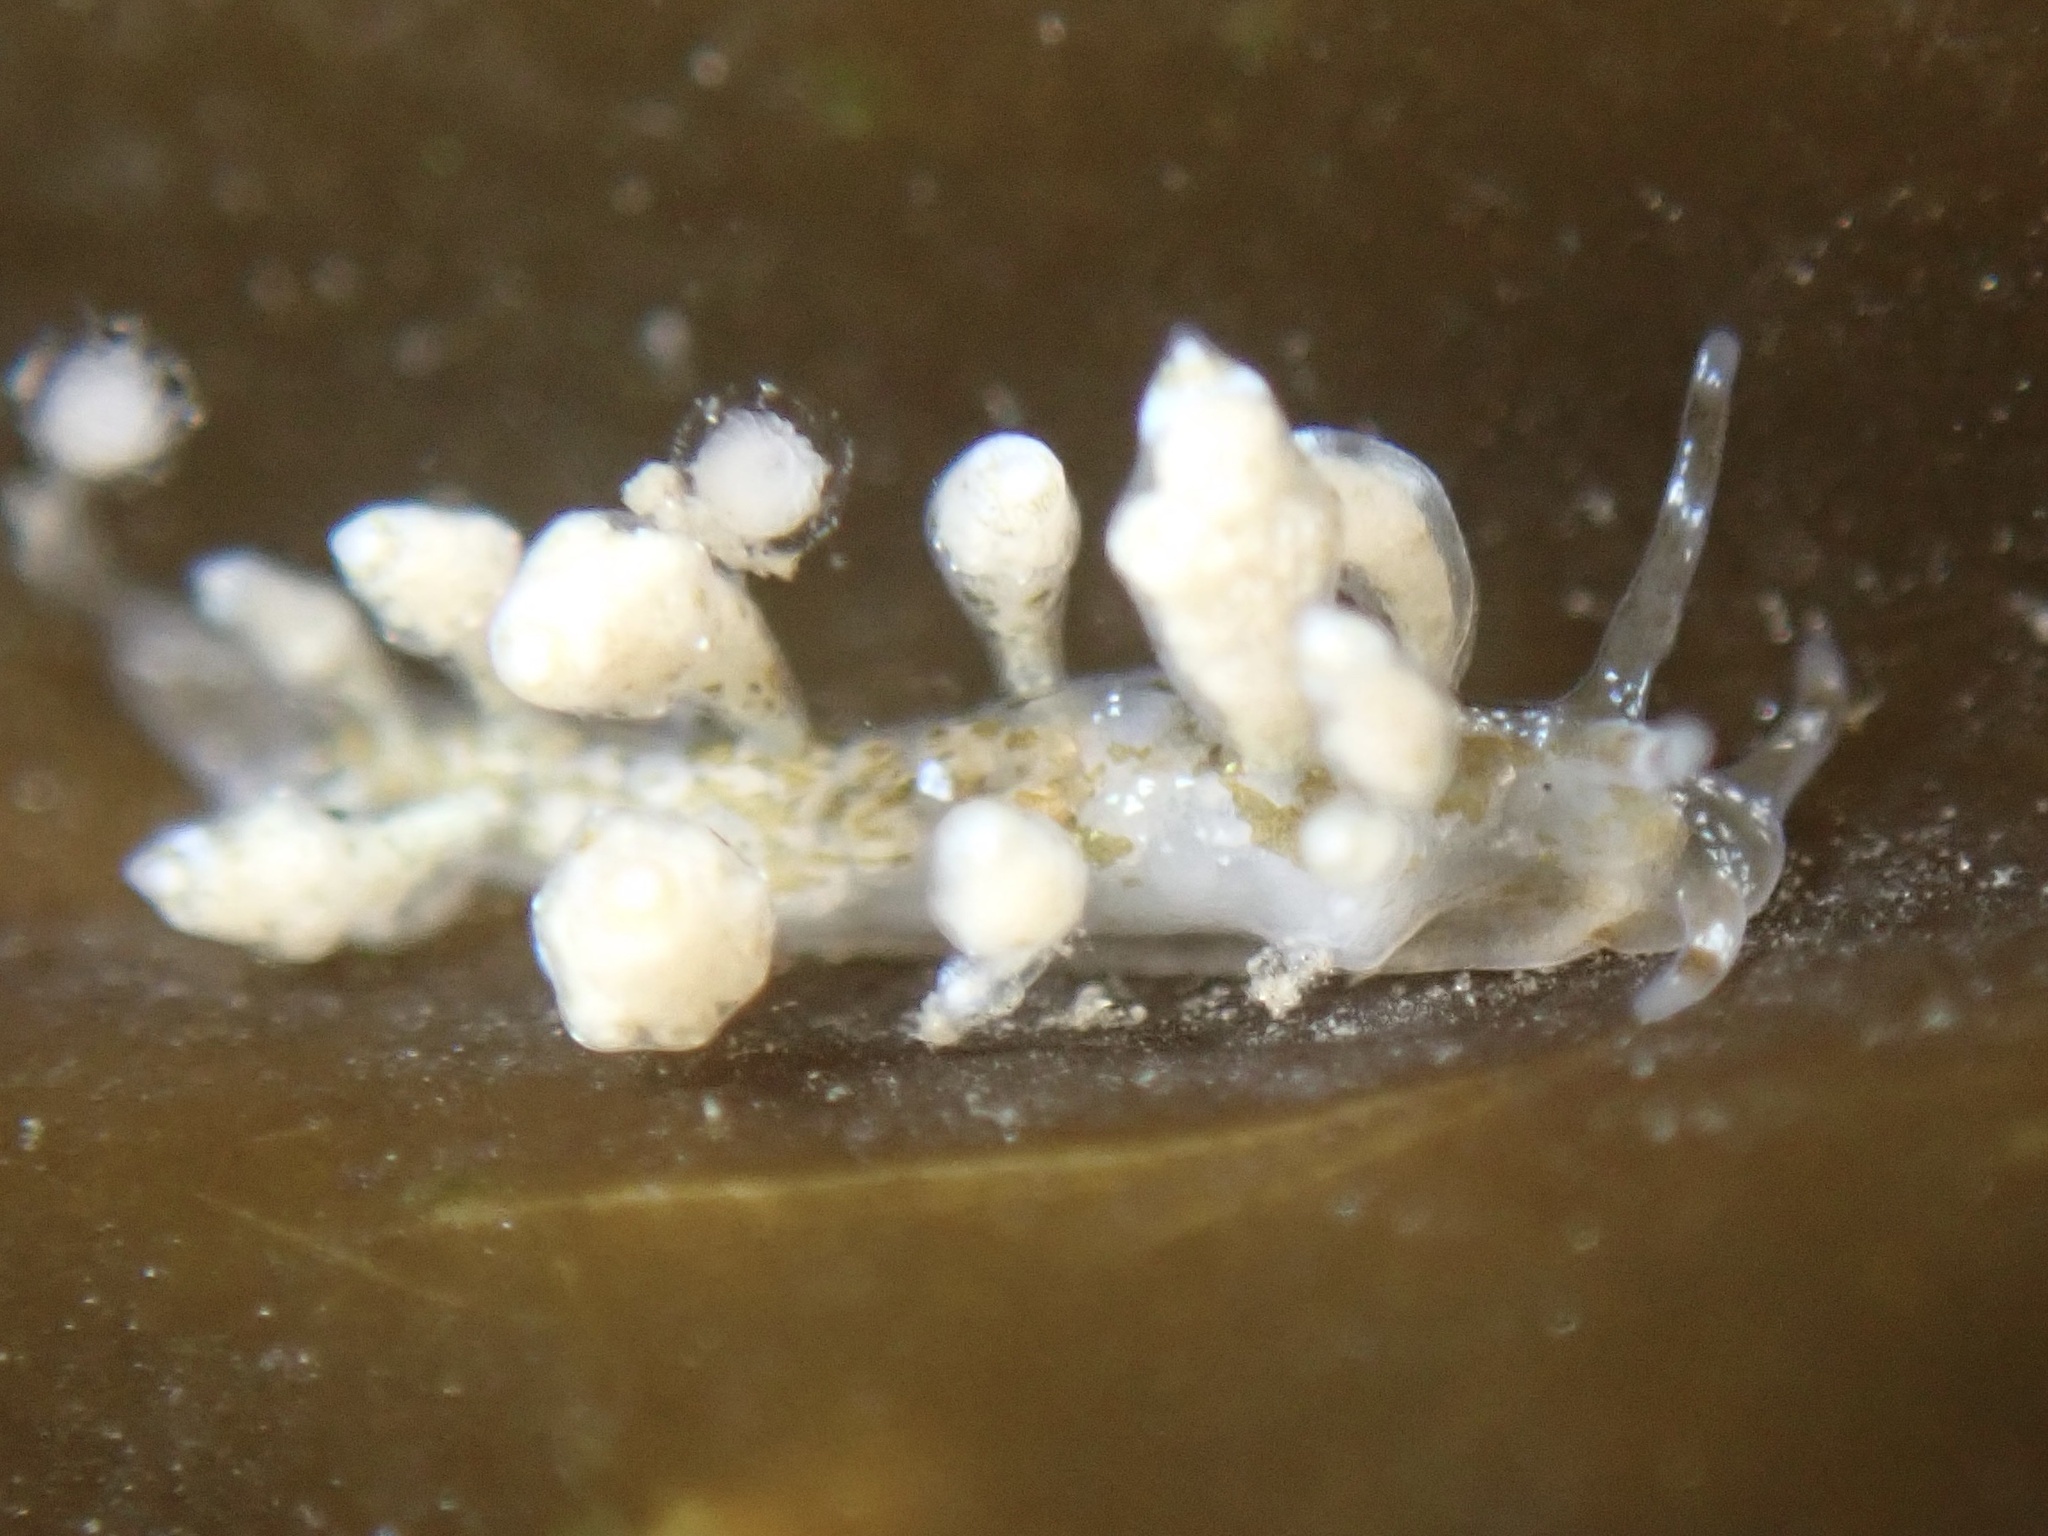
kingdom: Animalia
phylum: Mollusca
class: Gastropoda
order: Nudibranchia
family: Eubranchidae
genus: Eubranchus
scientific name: Eubranchus olivaceus
